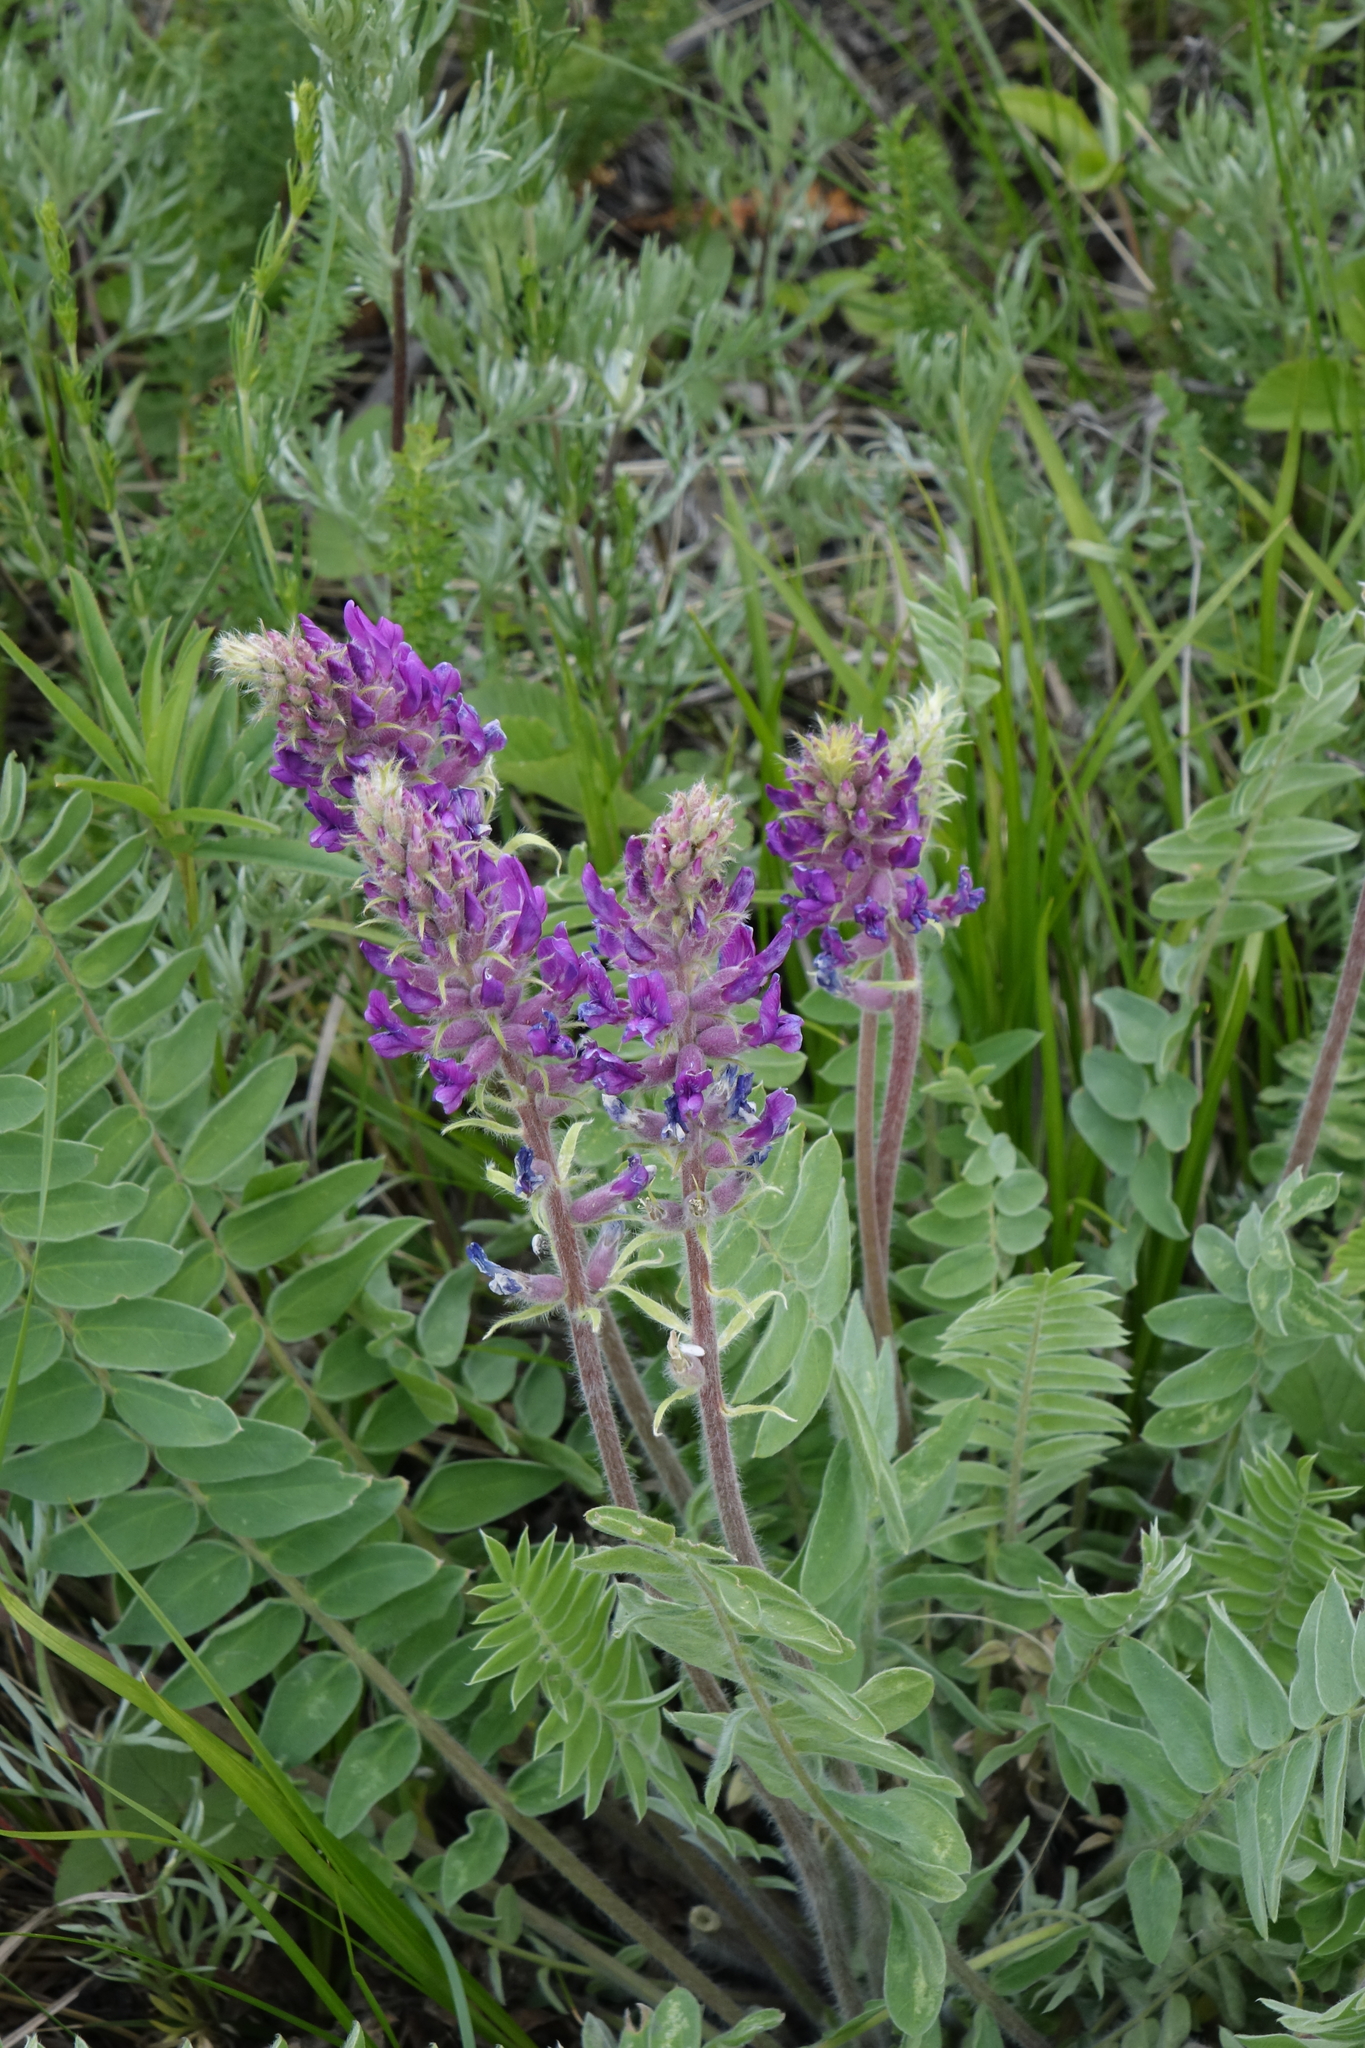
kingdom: Plantae
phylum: Tracheophyta
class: Magnoliopsida
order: Fabales
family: Fabaceae
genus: Oxytropis
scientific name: Oxytropis campanulata
